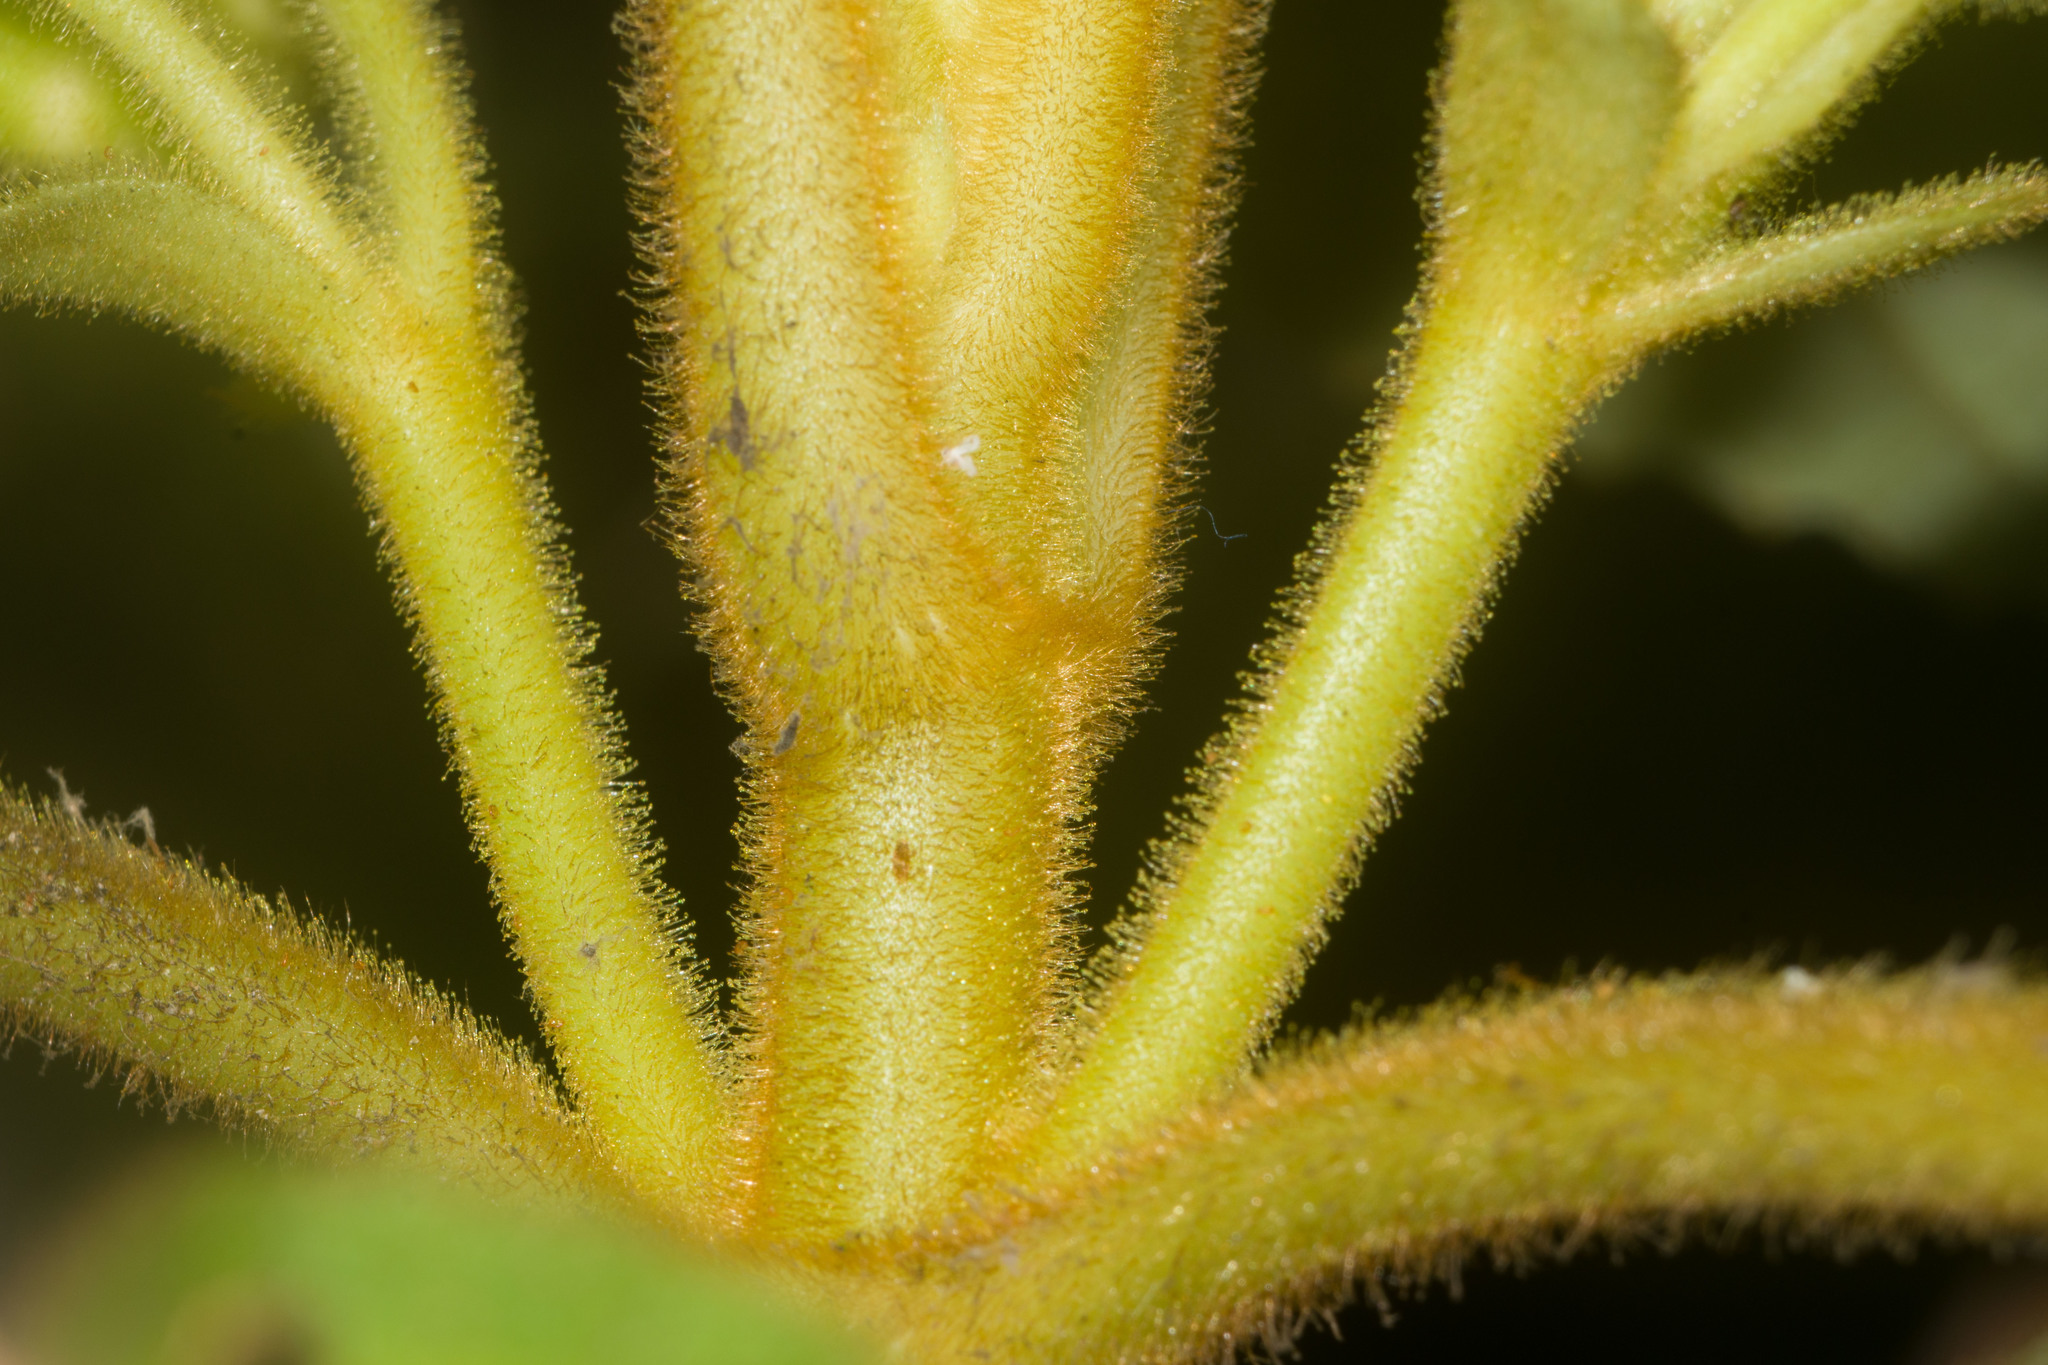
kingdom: Plantae
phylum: Tracheophyta
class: Magnoliopsida
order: Lamiales
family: Gesneriaceae
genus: Cyrtandra
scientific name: Cyrtandra platyphylla
